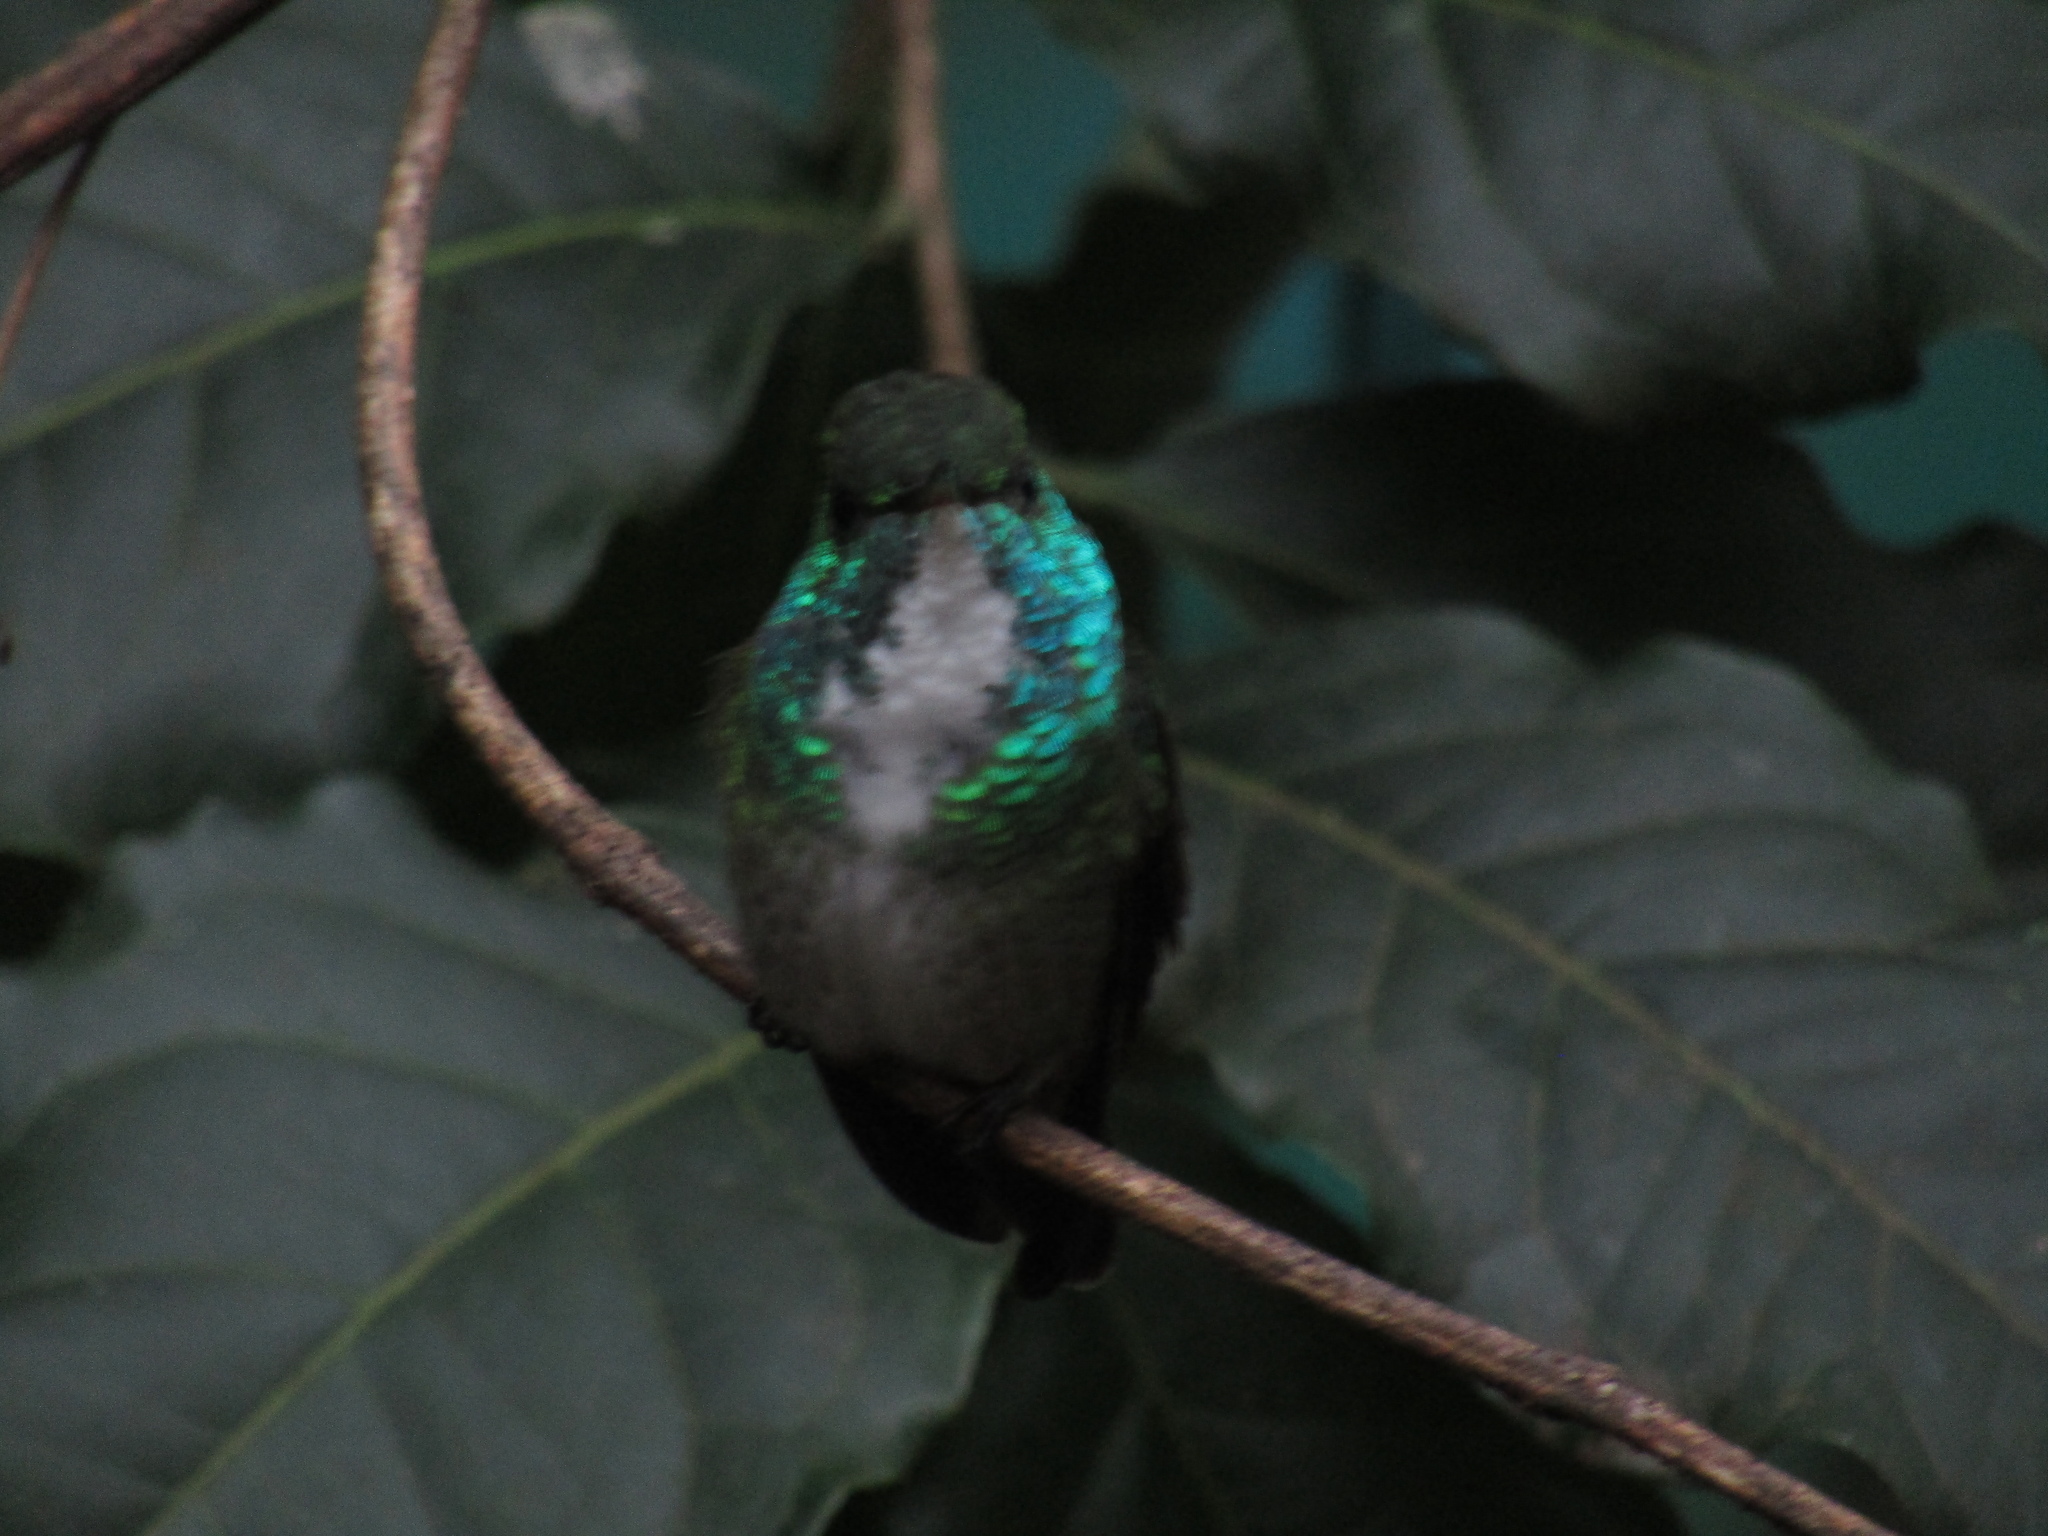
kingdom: Animalia
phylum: Chordata
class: Aves
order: Apodiformes
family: Trochilidae
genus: Chrysuronia
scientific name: Chrysuronia versicolor
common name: Versicolored emerald
